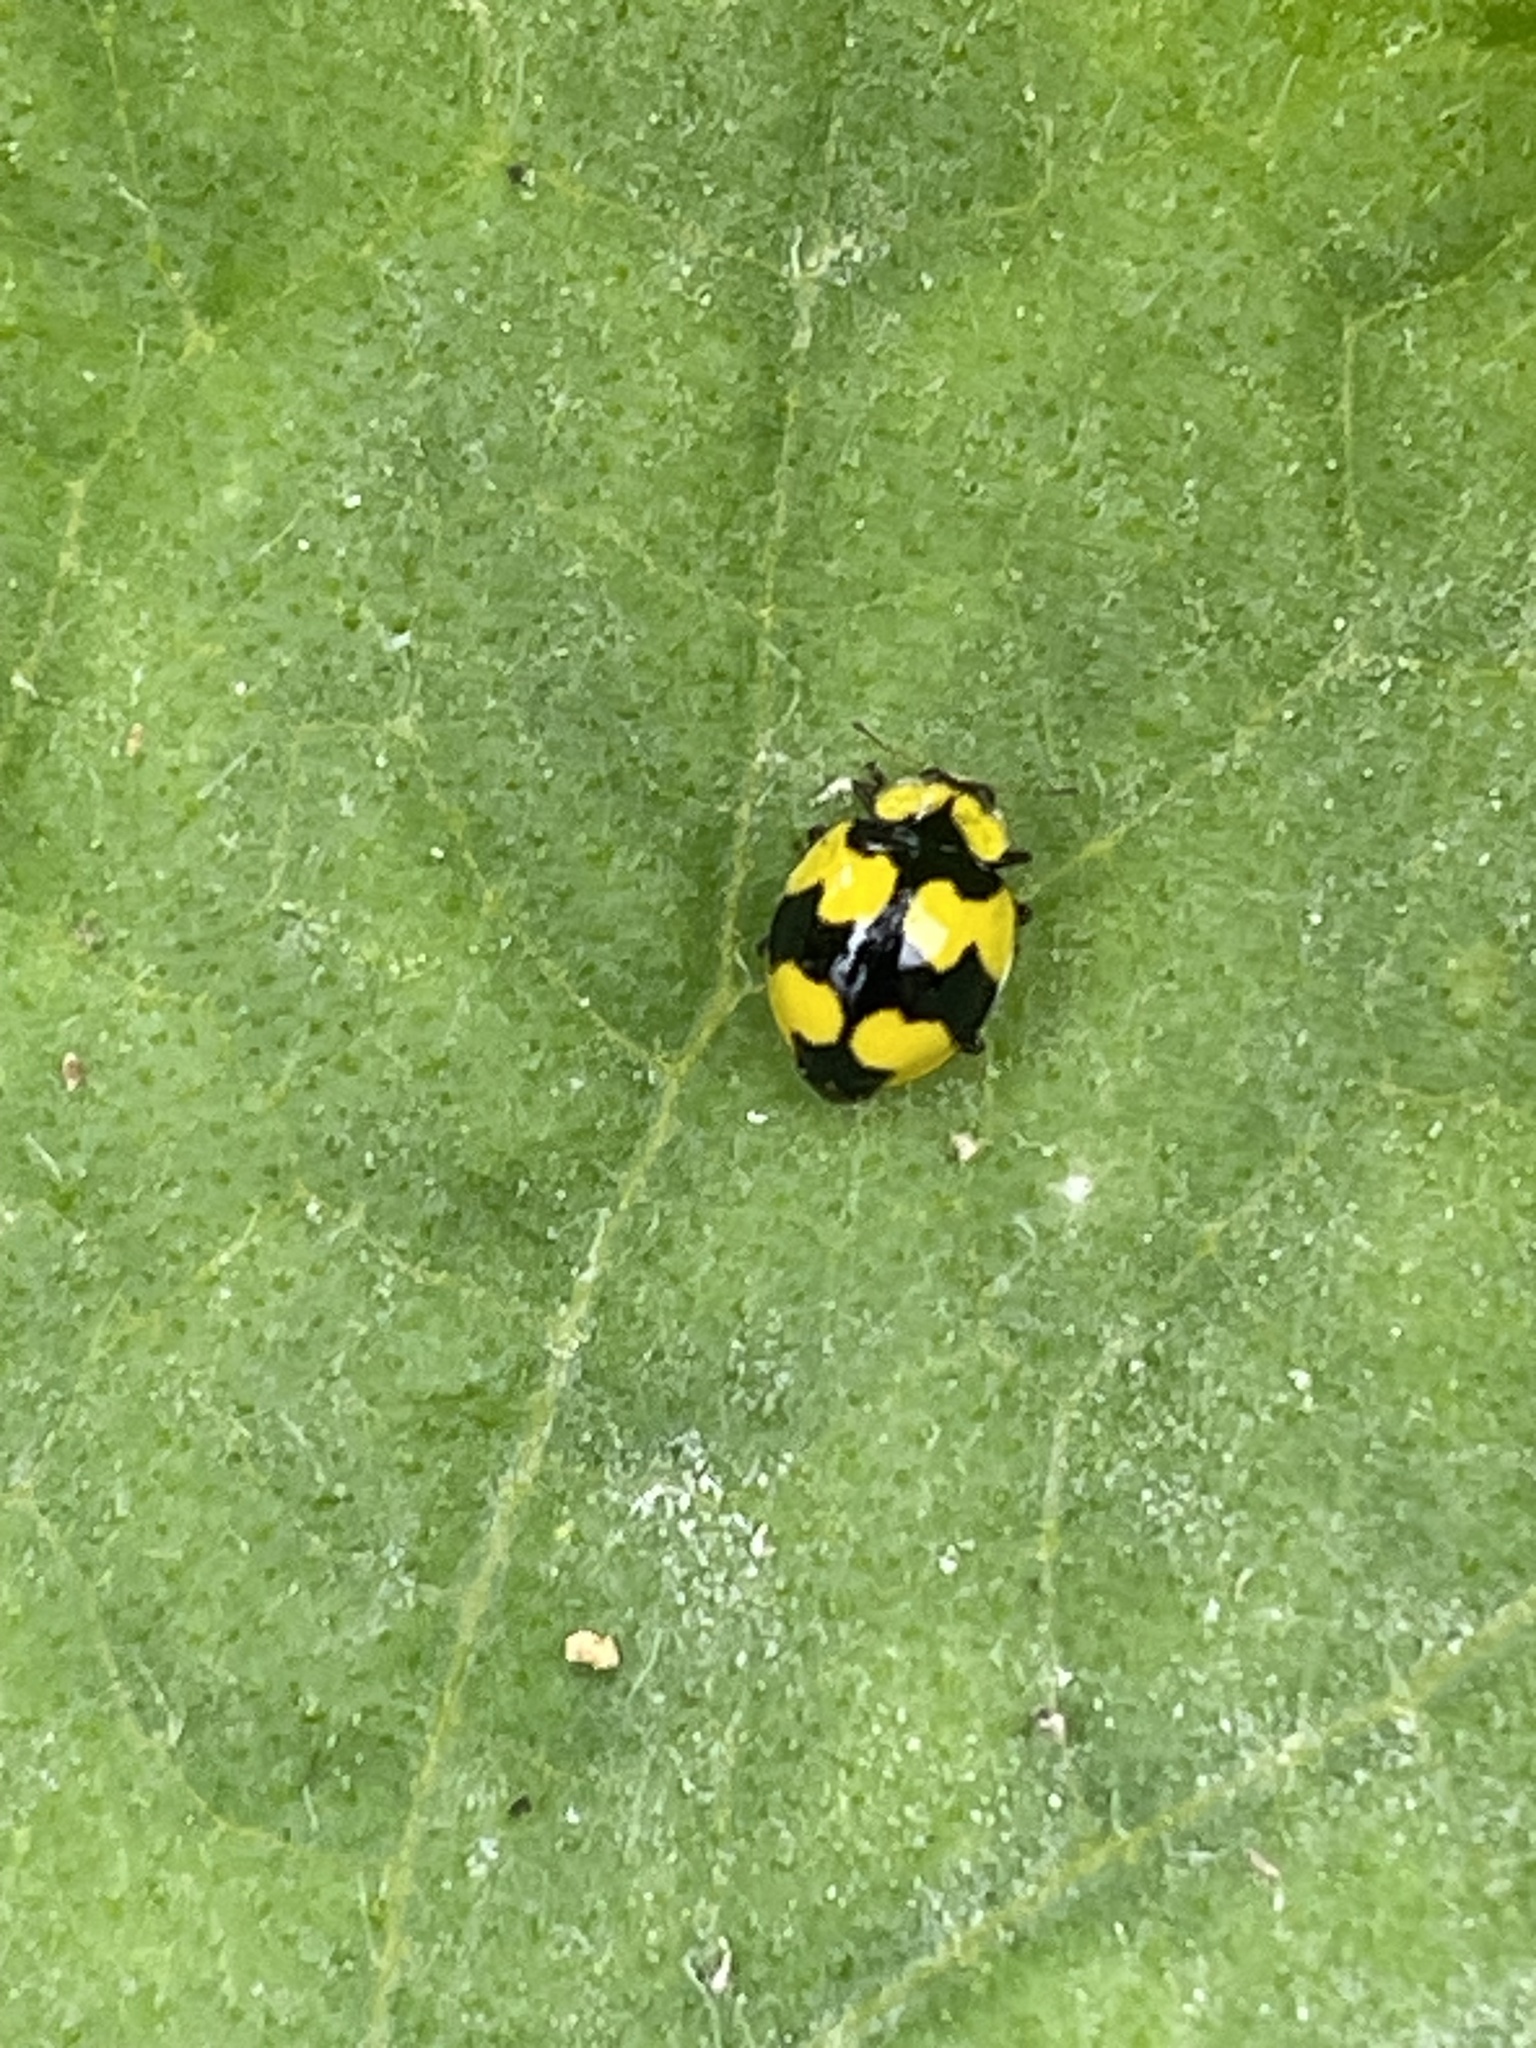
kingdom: Animalia
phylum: Arthropoda
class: Insecta
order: Coleoptera
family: Coccinellidae
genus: Illeis
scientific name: Illeis galbula
